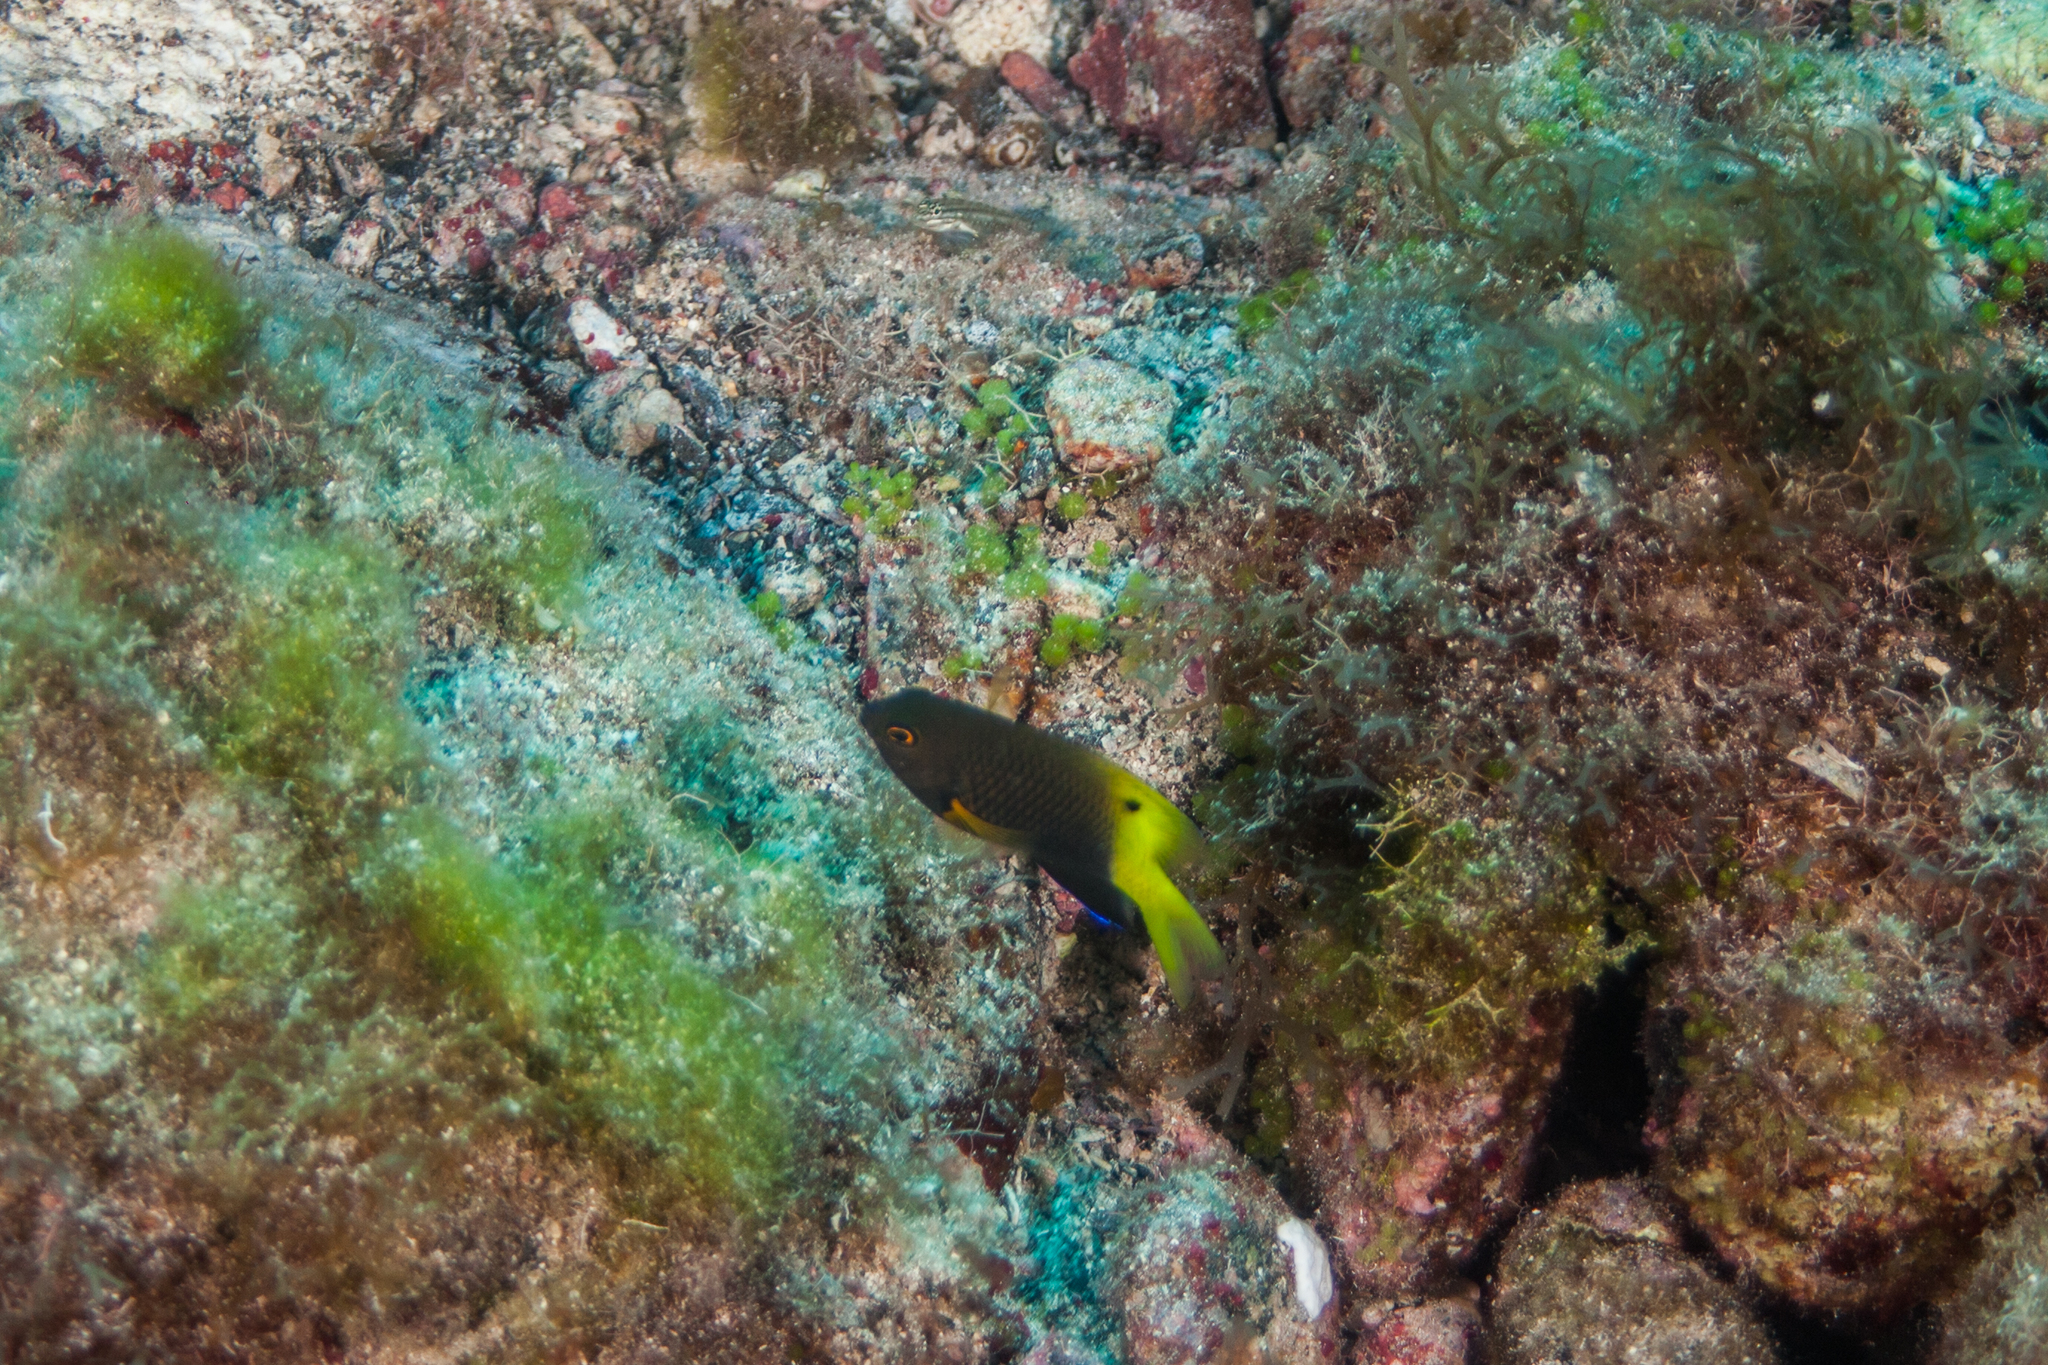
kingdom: Animalia
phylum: Chordata
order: Perciformes
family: Pomacentridae
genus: Stegastes
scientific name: Stegastes pictus
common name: Yellowtip damselfish
